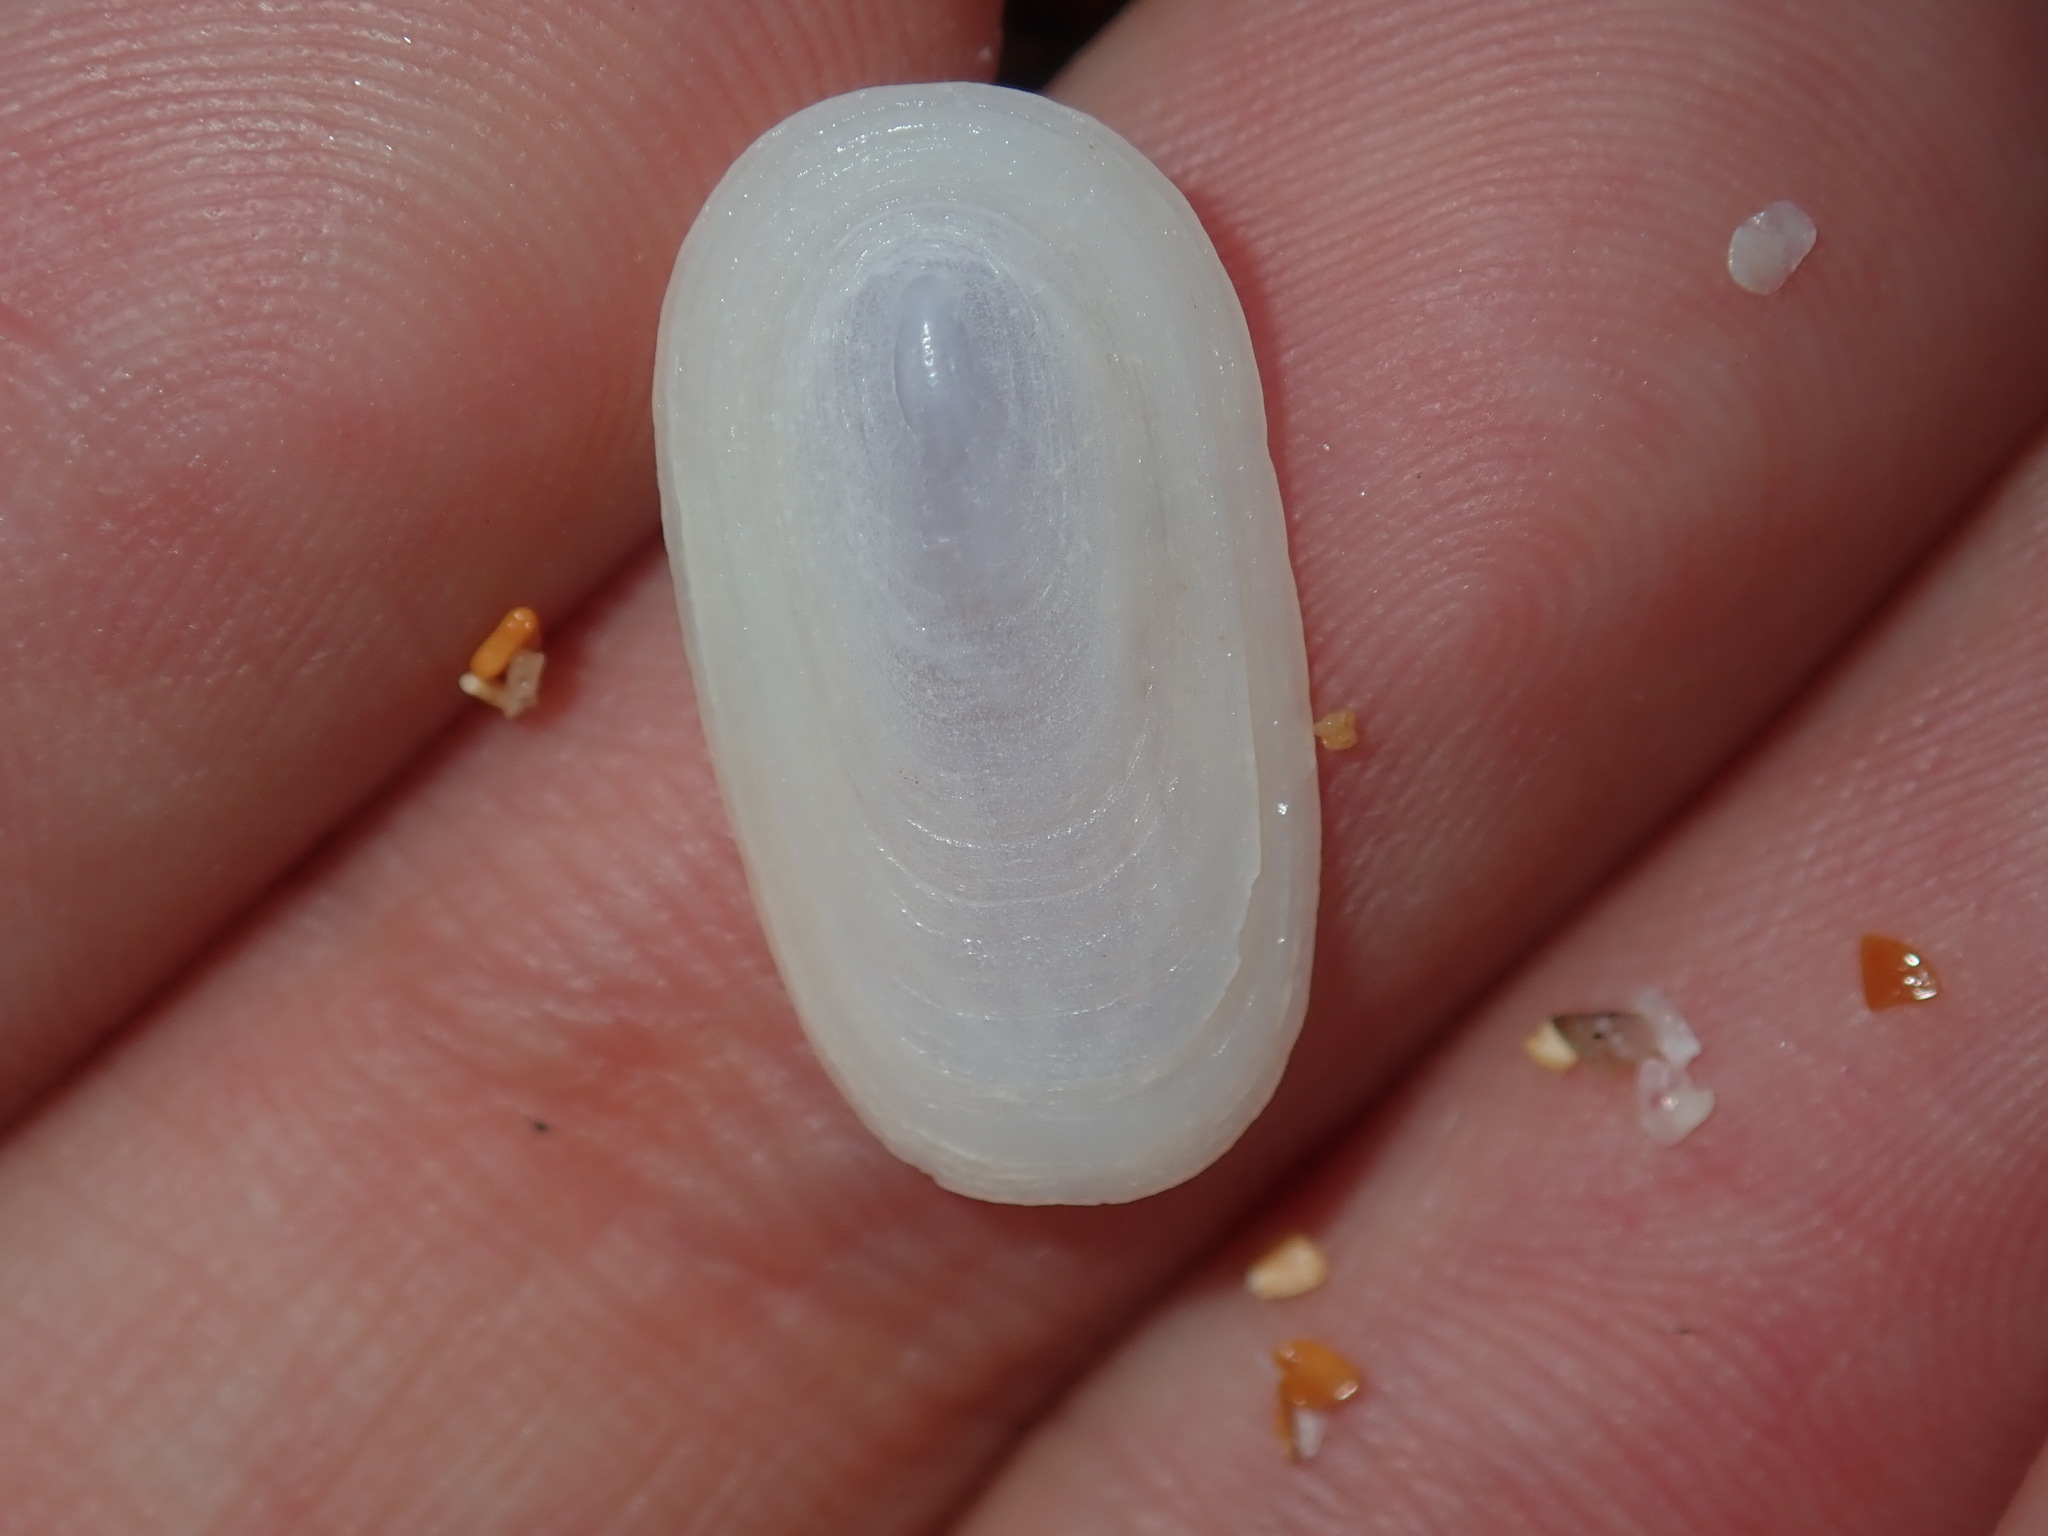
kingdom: Animalia
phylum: Mollusca
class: Gastropoda
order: Lepetellida
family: Fissurellidae
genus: Scutus
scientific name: Scutus antipodes
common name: Duckbill shell
